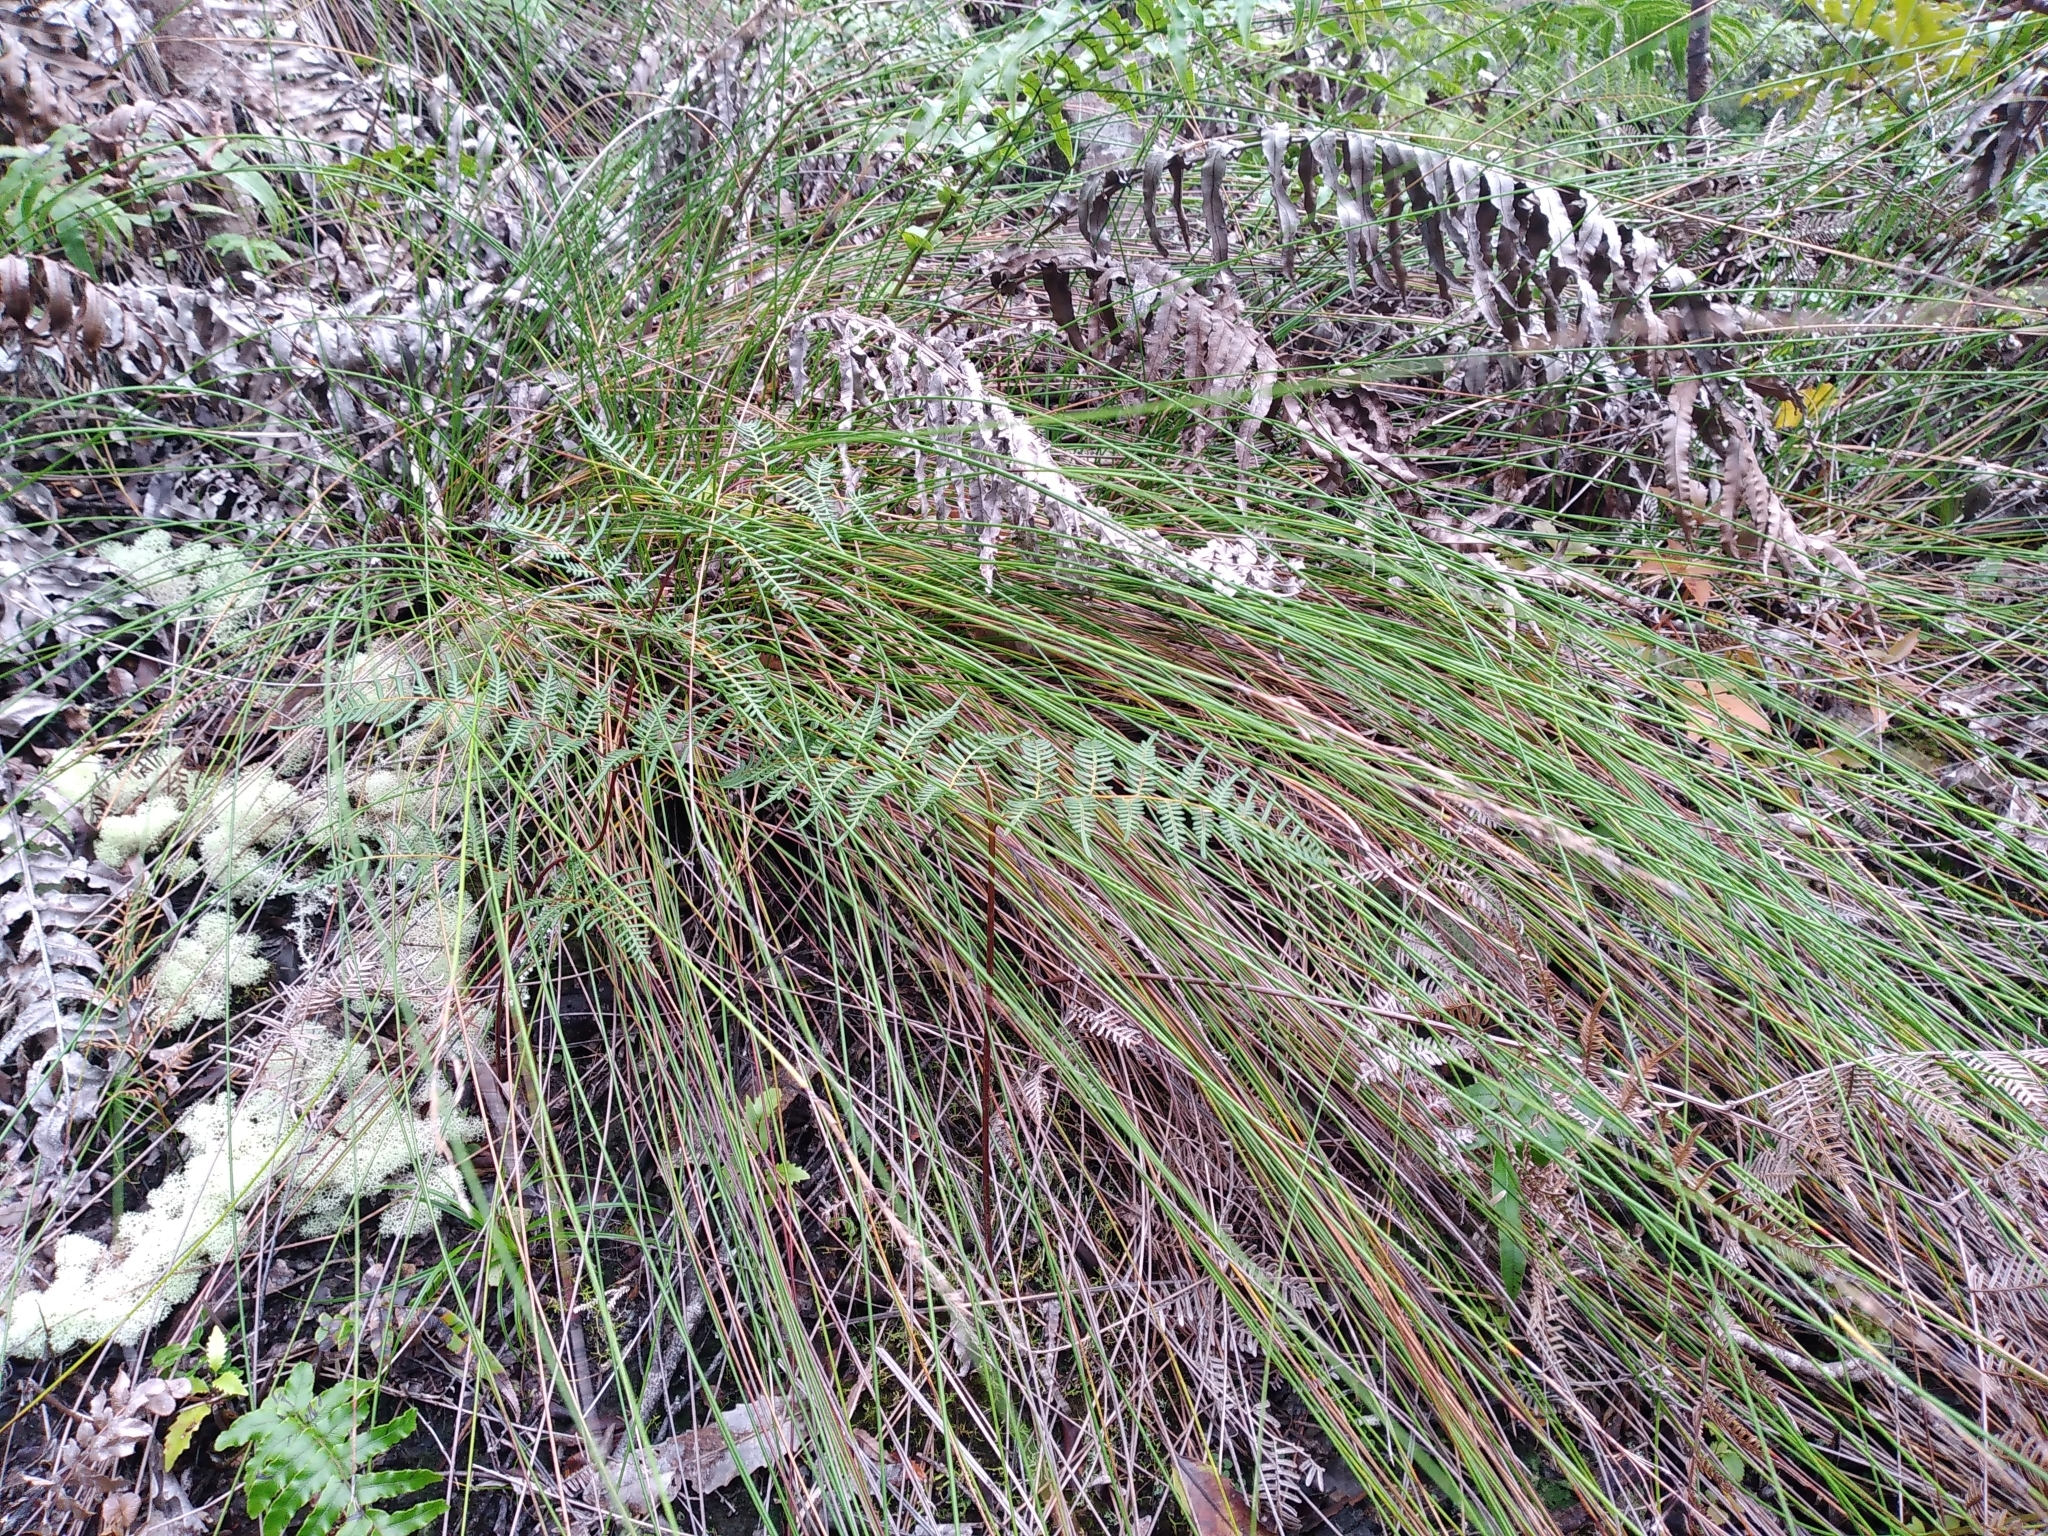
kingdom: Plantae
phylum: Tracheophyta
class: Liliopsida
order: Poales
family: Cyperaceae
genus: Schoenus
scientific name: Schoenus tendo
